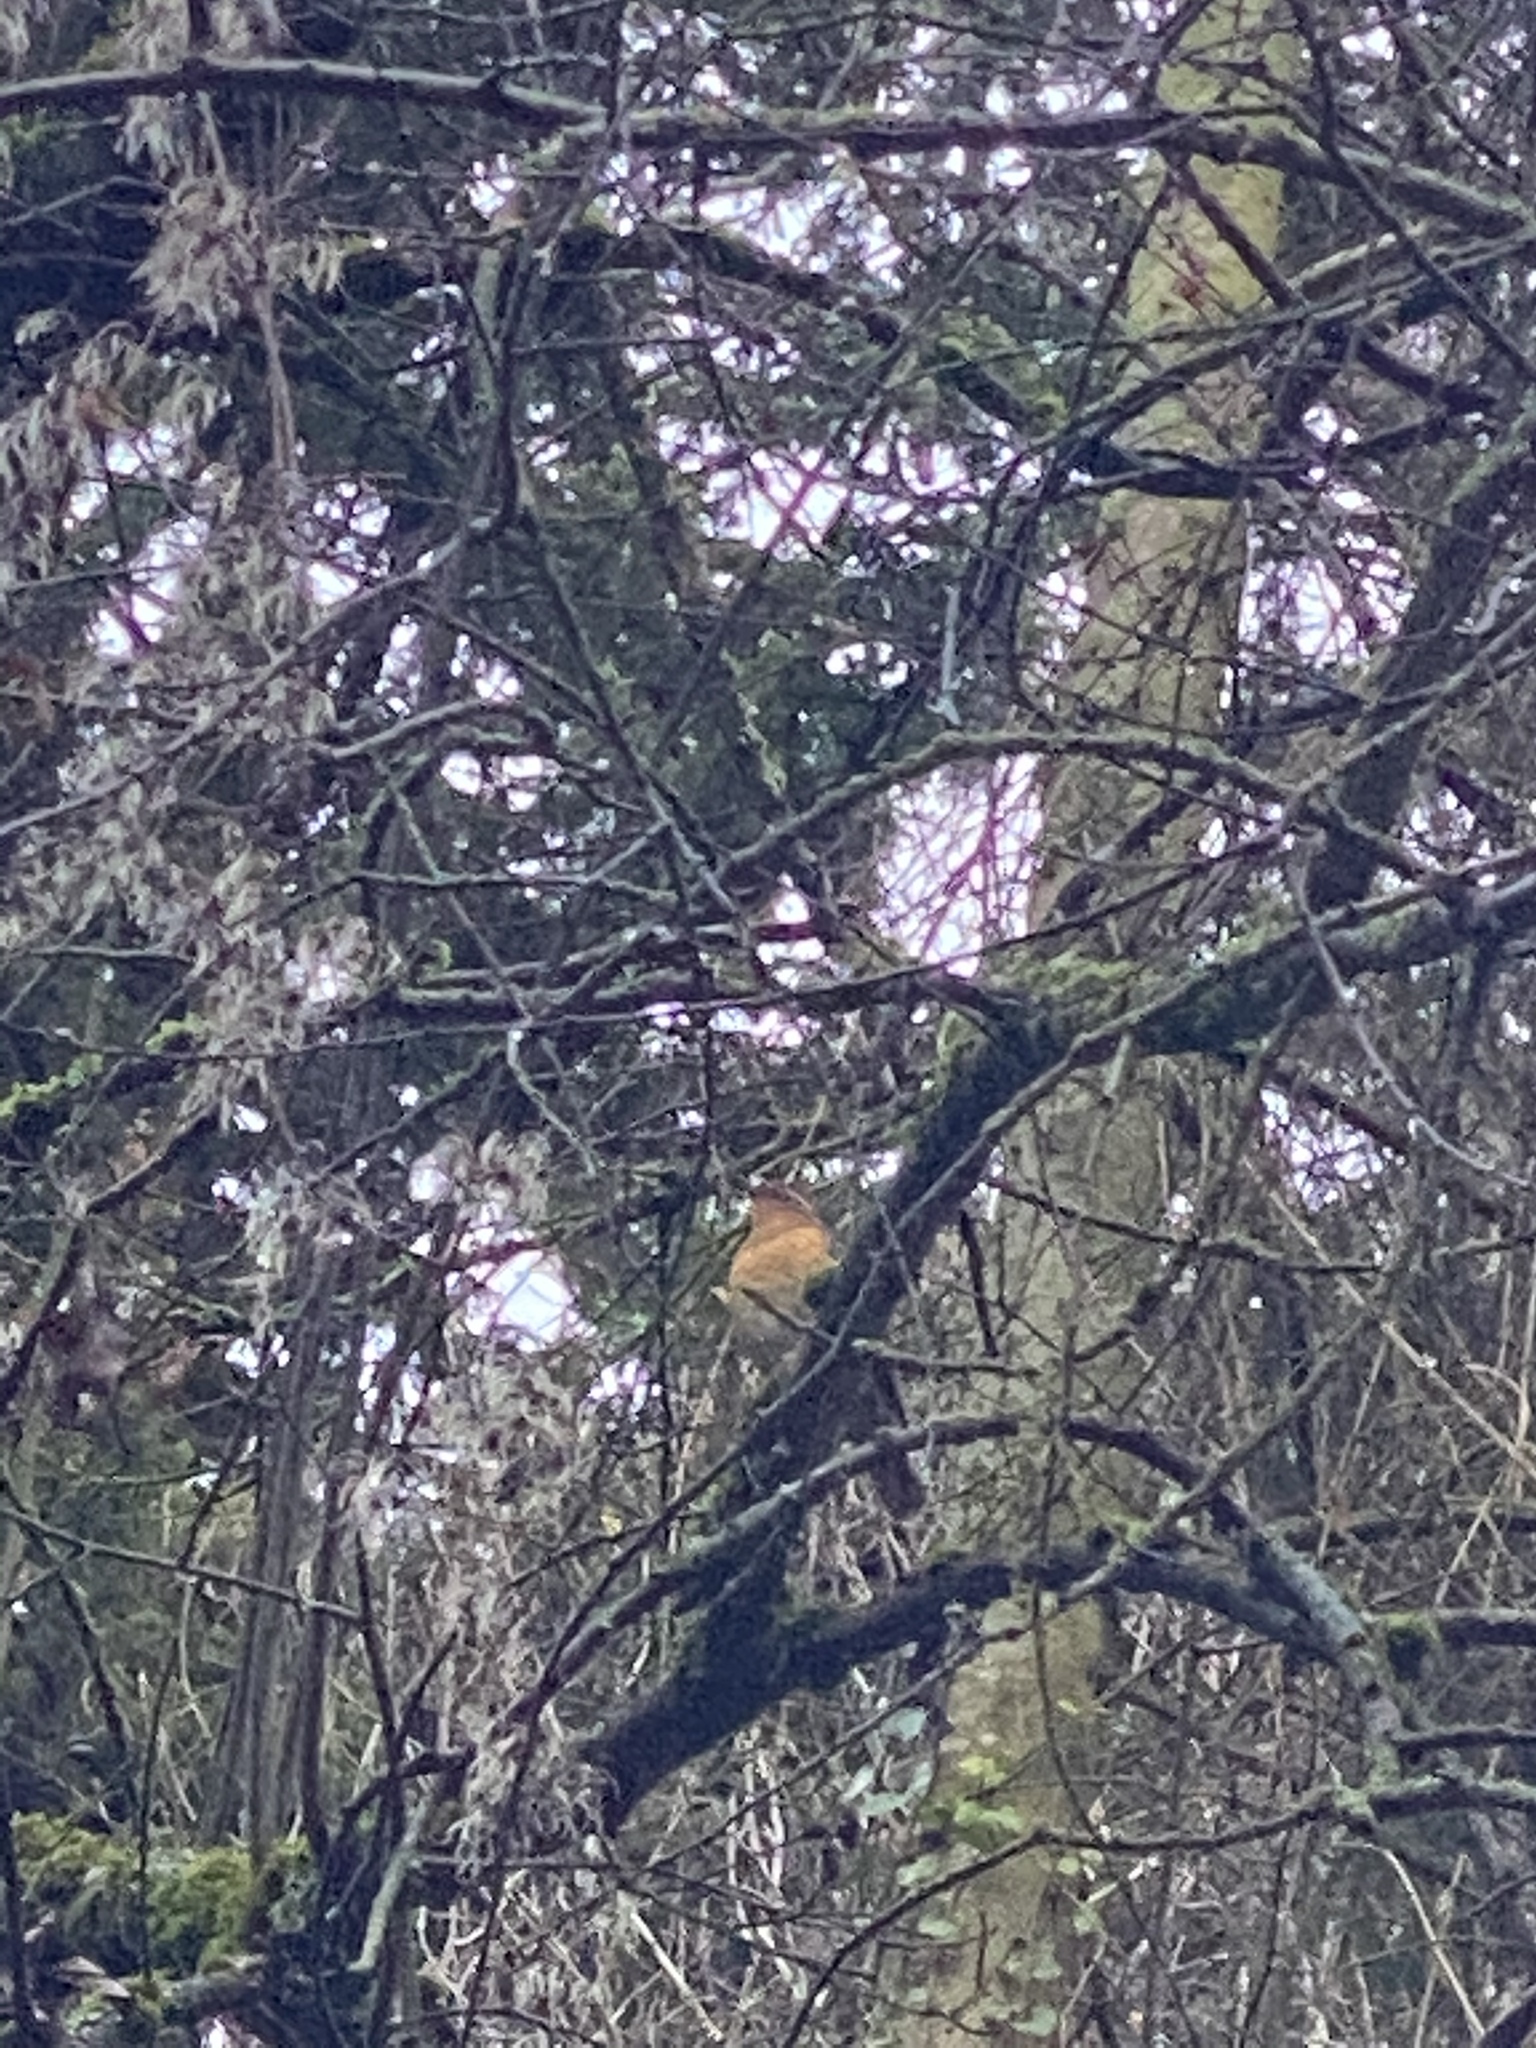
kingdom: Animalia
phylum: Chordata
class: Aves
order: Passeriformes
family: Turdidae
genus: Ixoreus
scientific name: Ixoreus naevius
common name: Varied thrush
